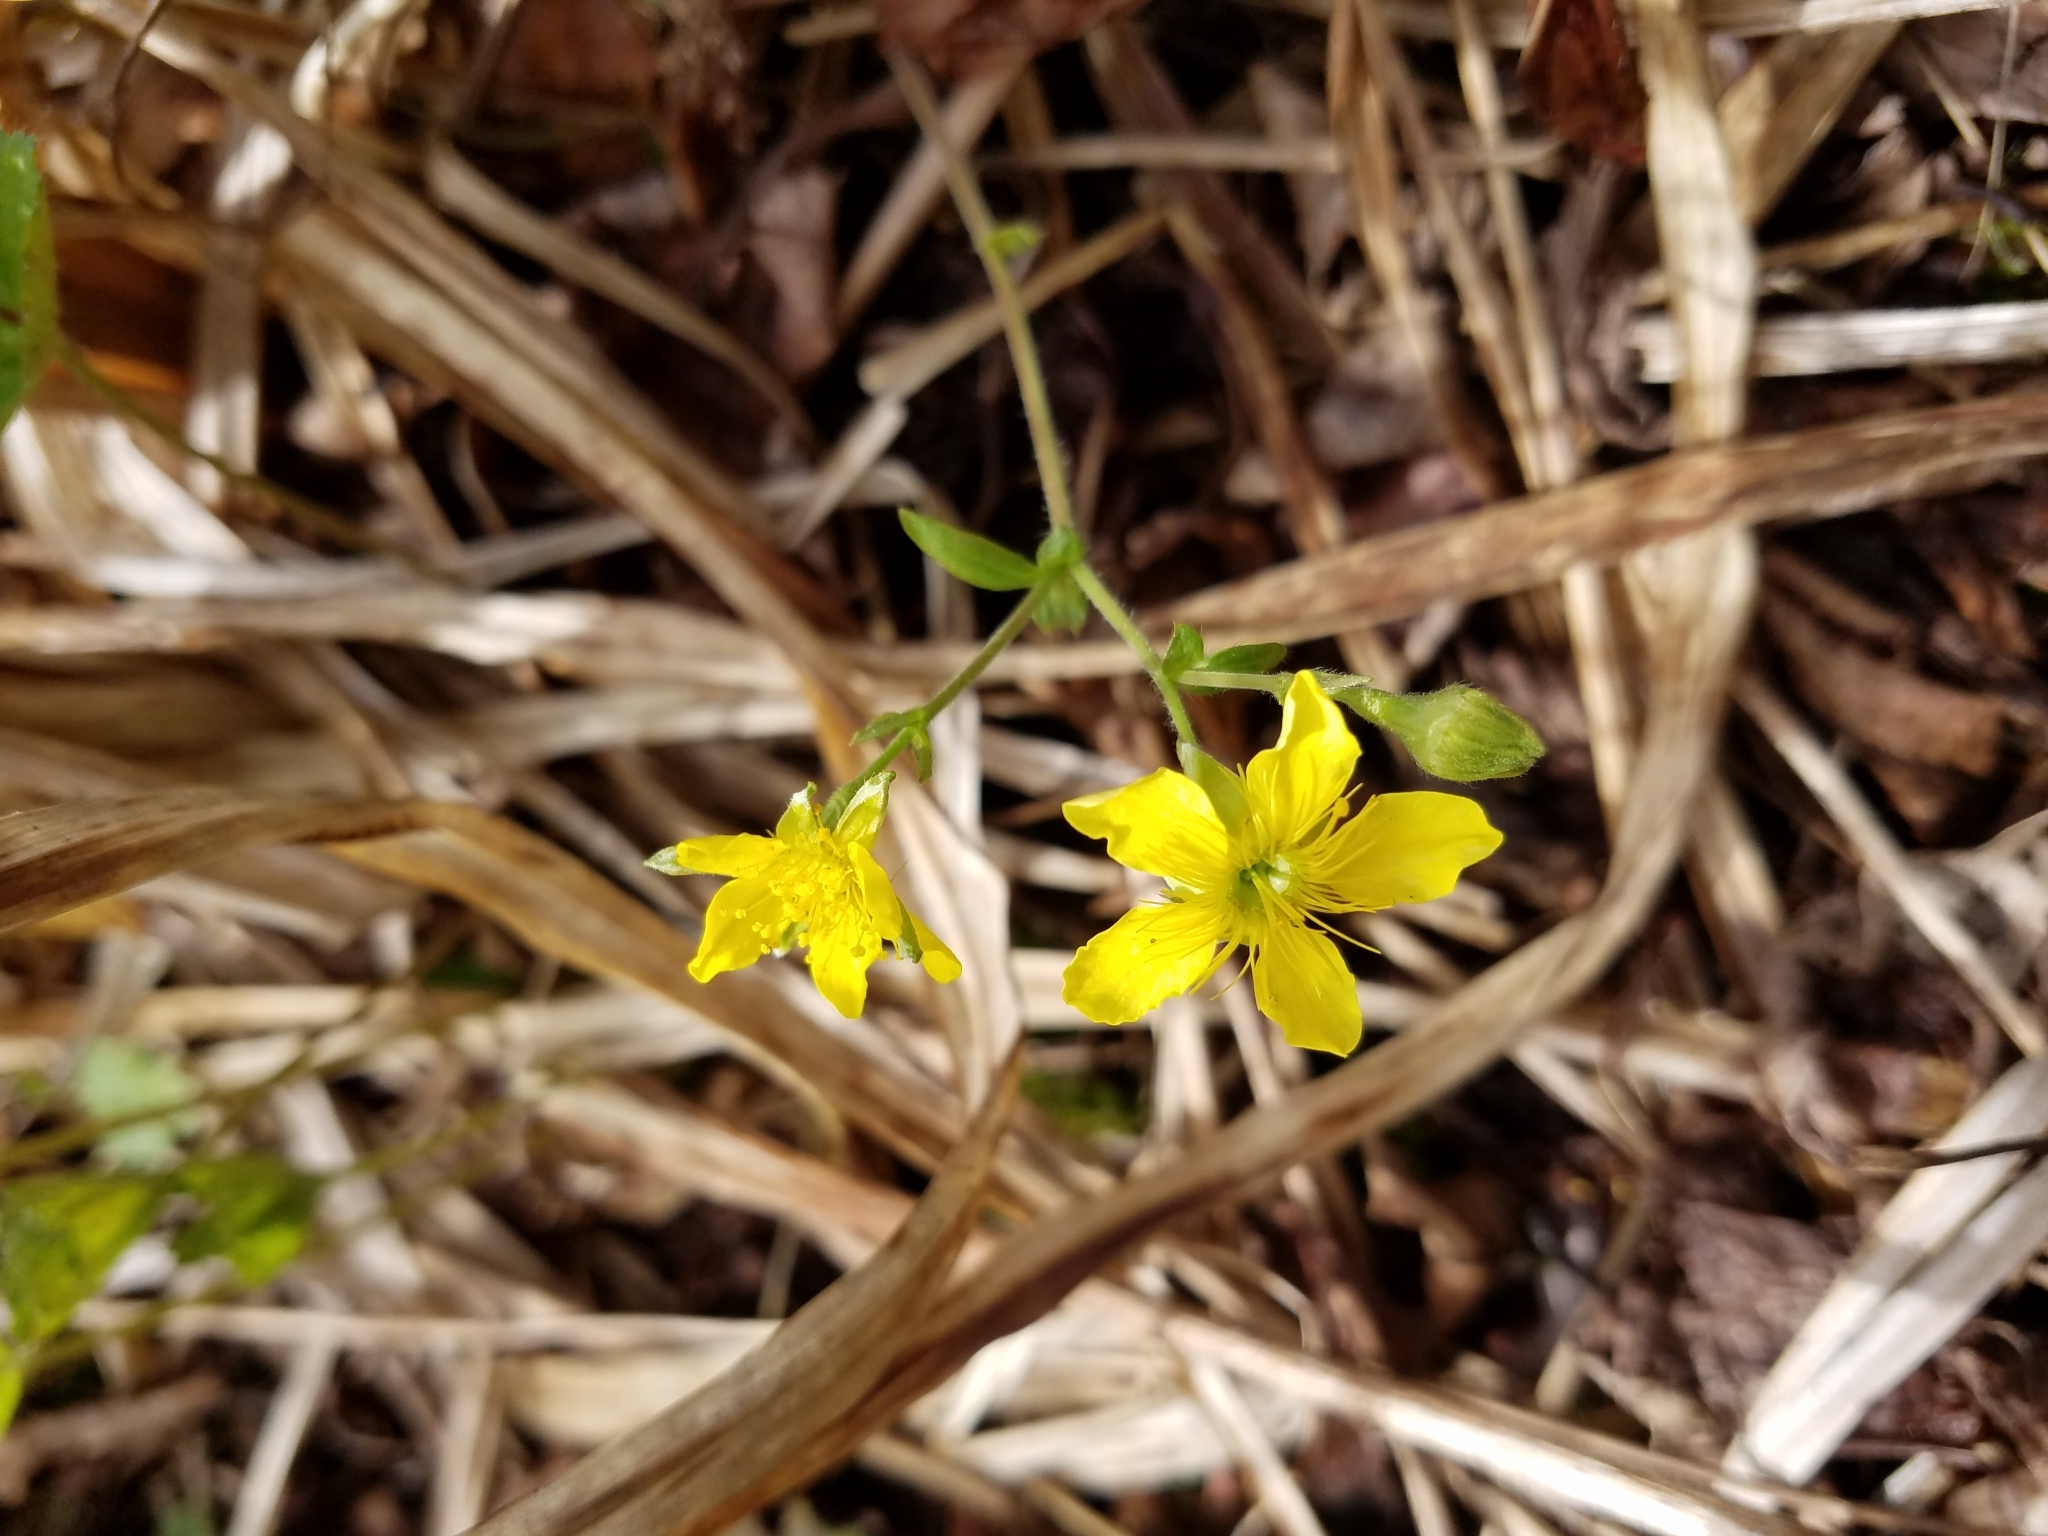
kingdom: Plantae
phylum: Tracheophyta
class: Magnoliopsida
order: Rosales
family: Rosaceae
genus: Geum
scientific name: Geum fragarioides
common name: Appalachian barren strawberry
